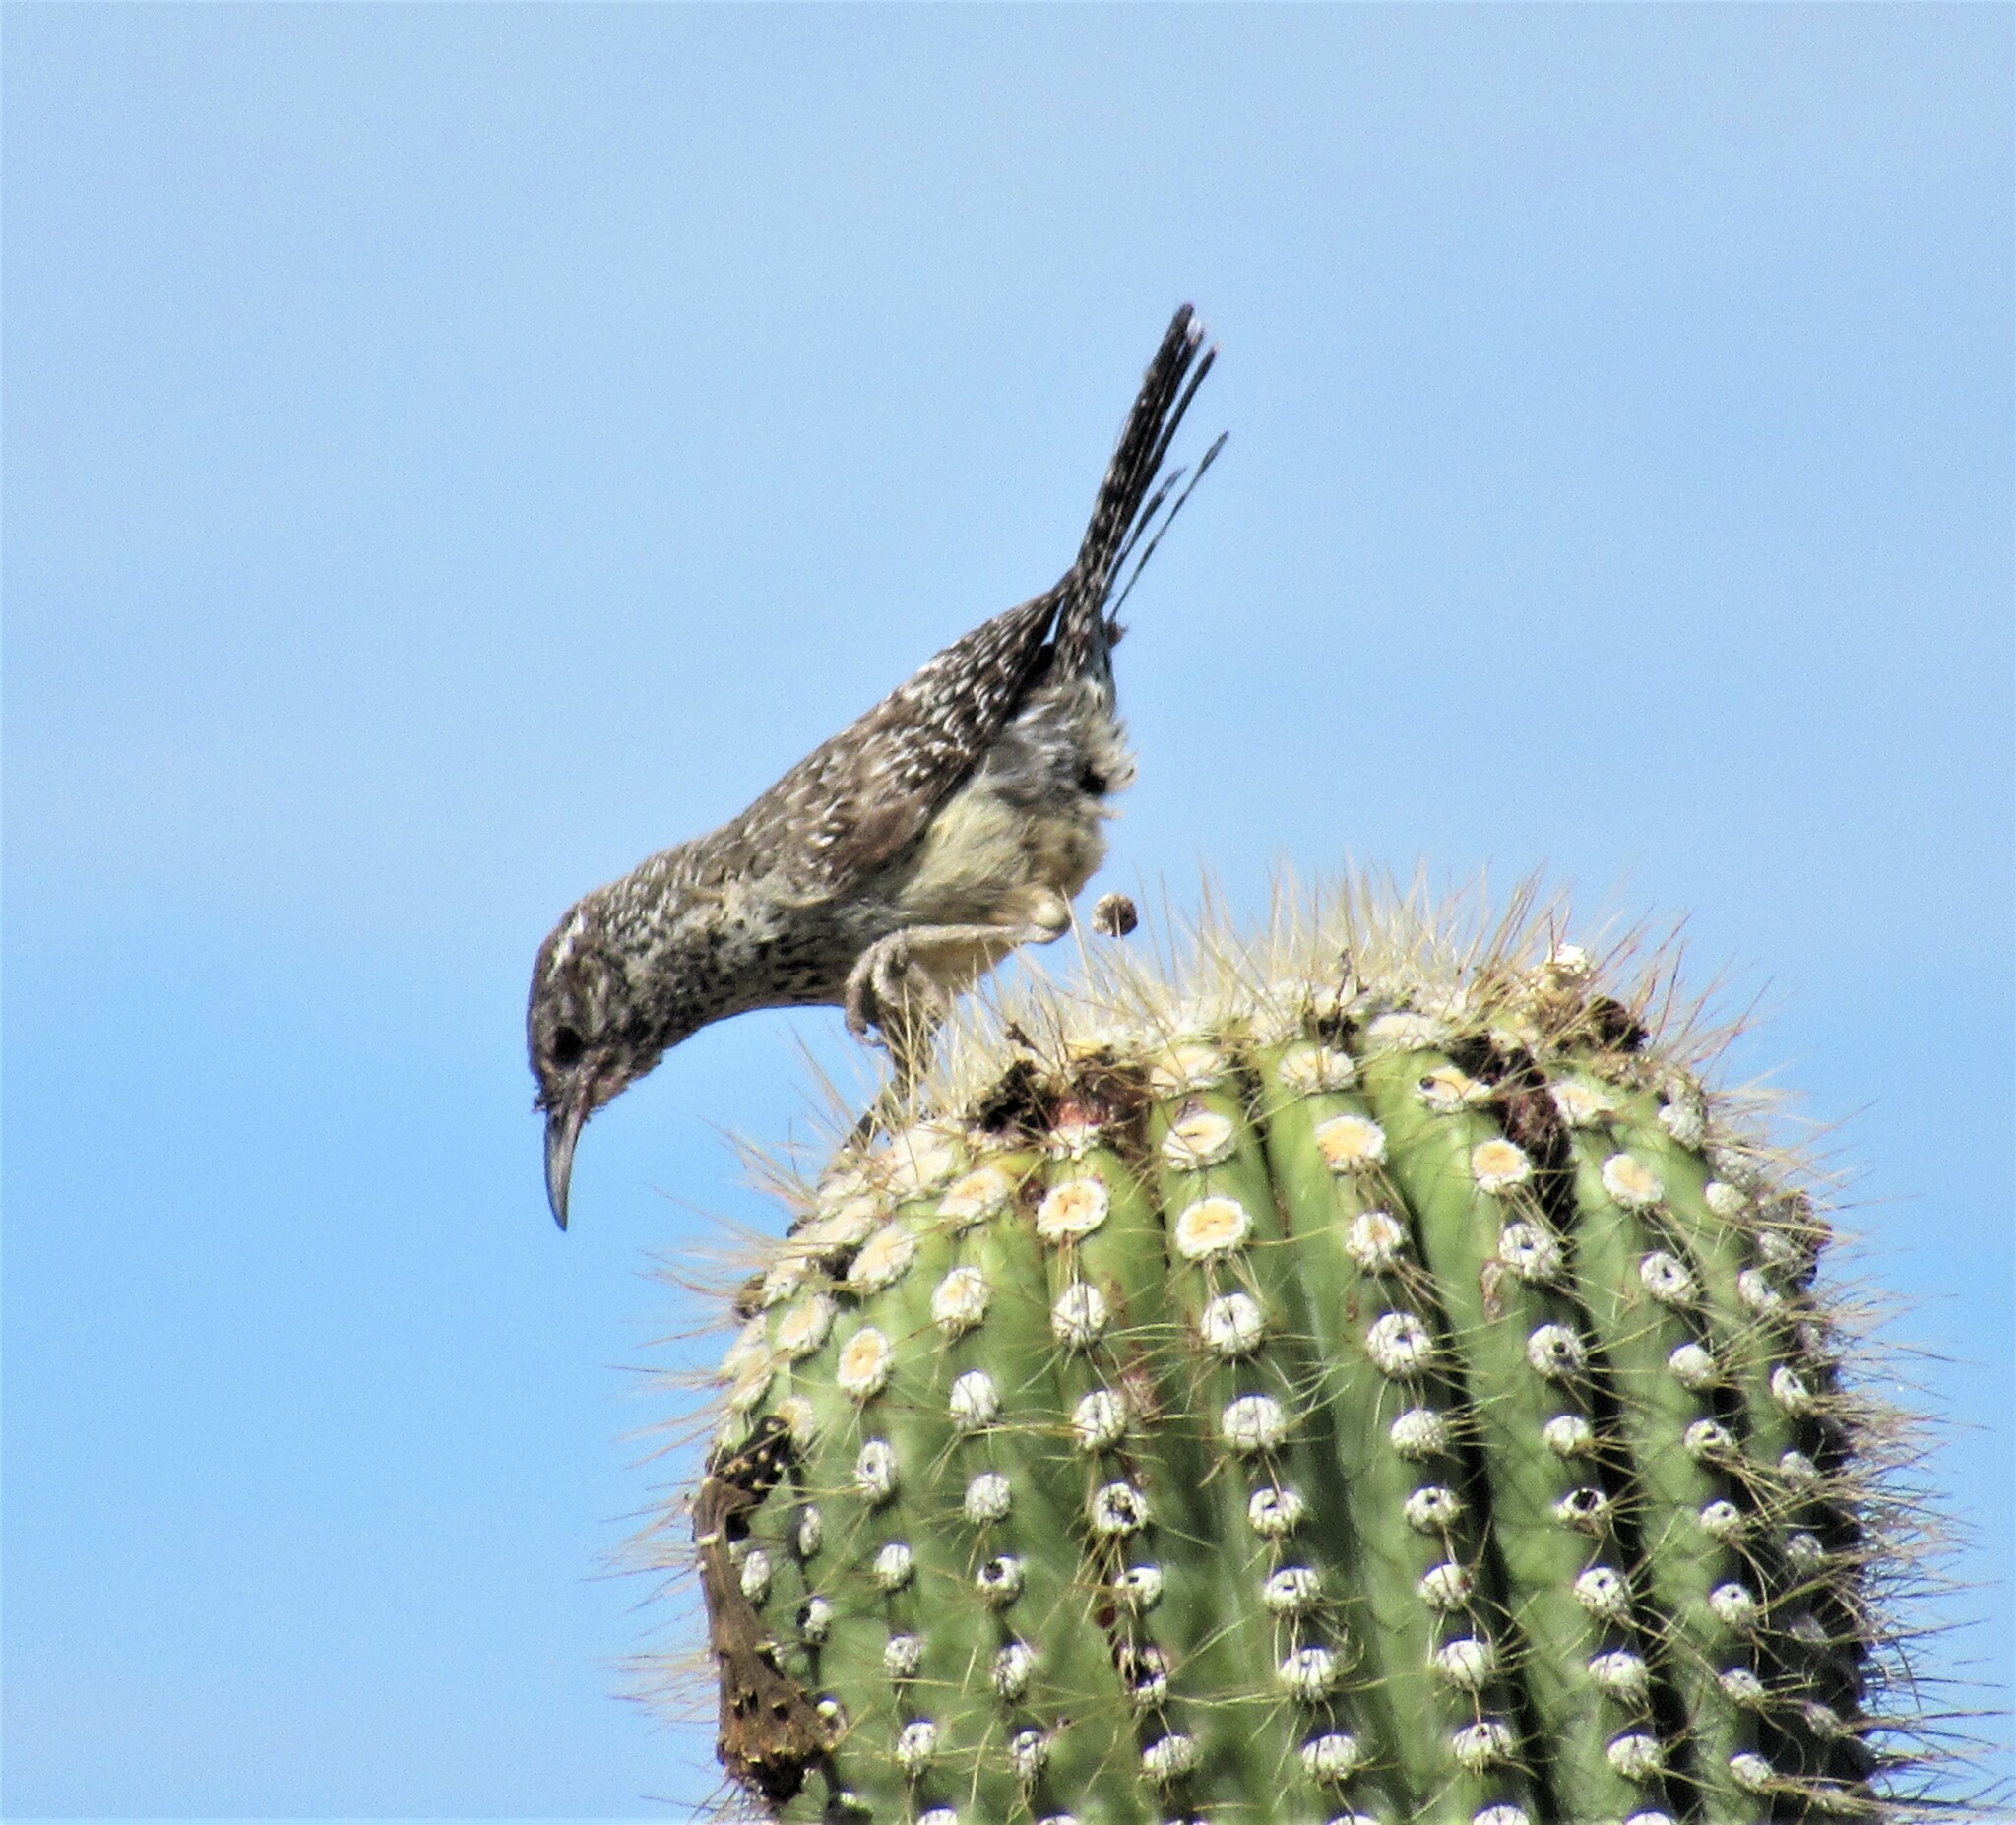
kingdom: Animalia
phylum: Chordata
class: Aves
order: Passeriformes
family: Troglodytidae
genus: Campylorhynchus
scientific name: Campylorhynchus brunneicapillus
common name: Cactus wren
